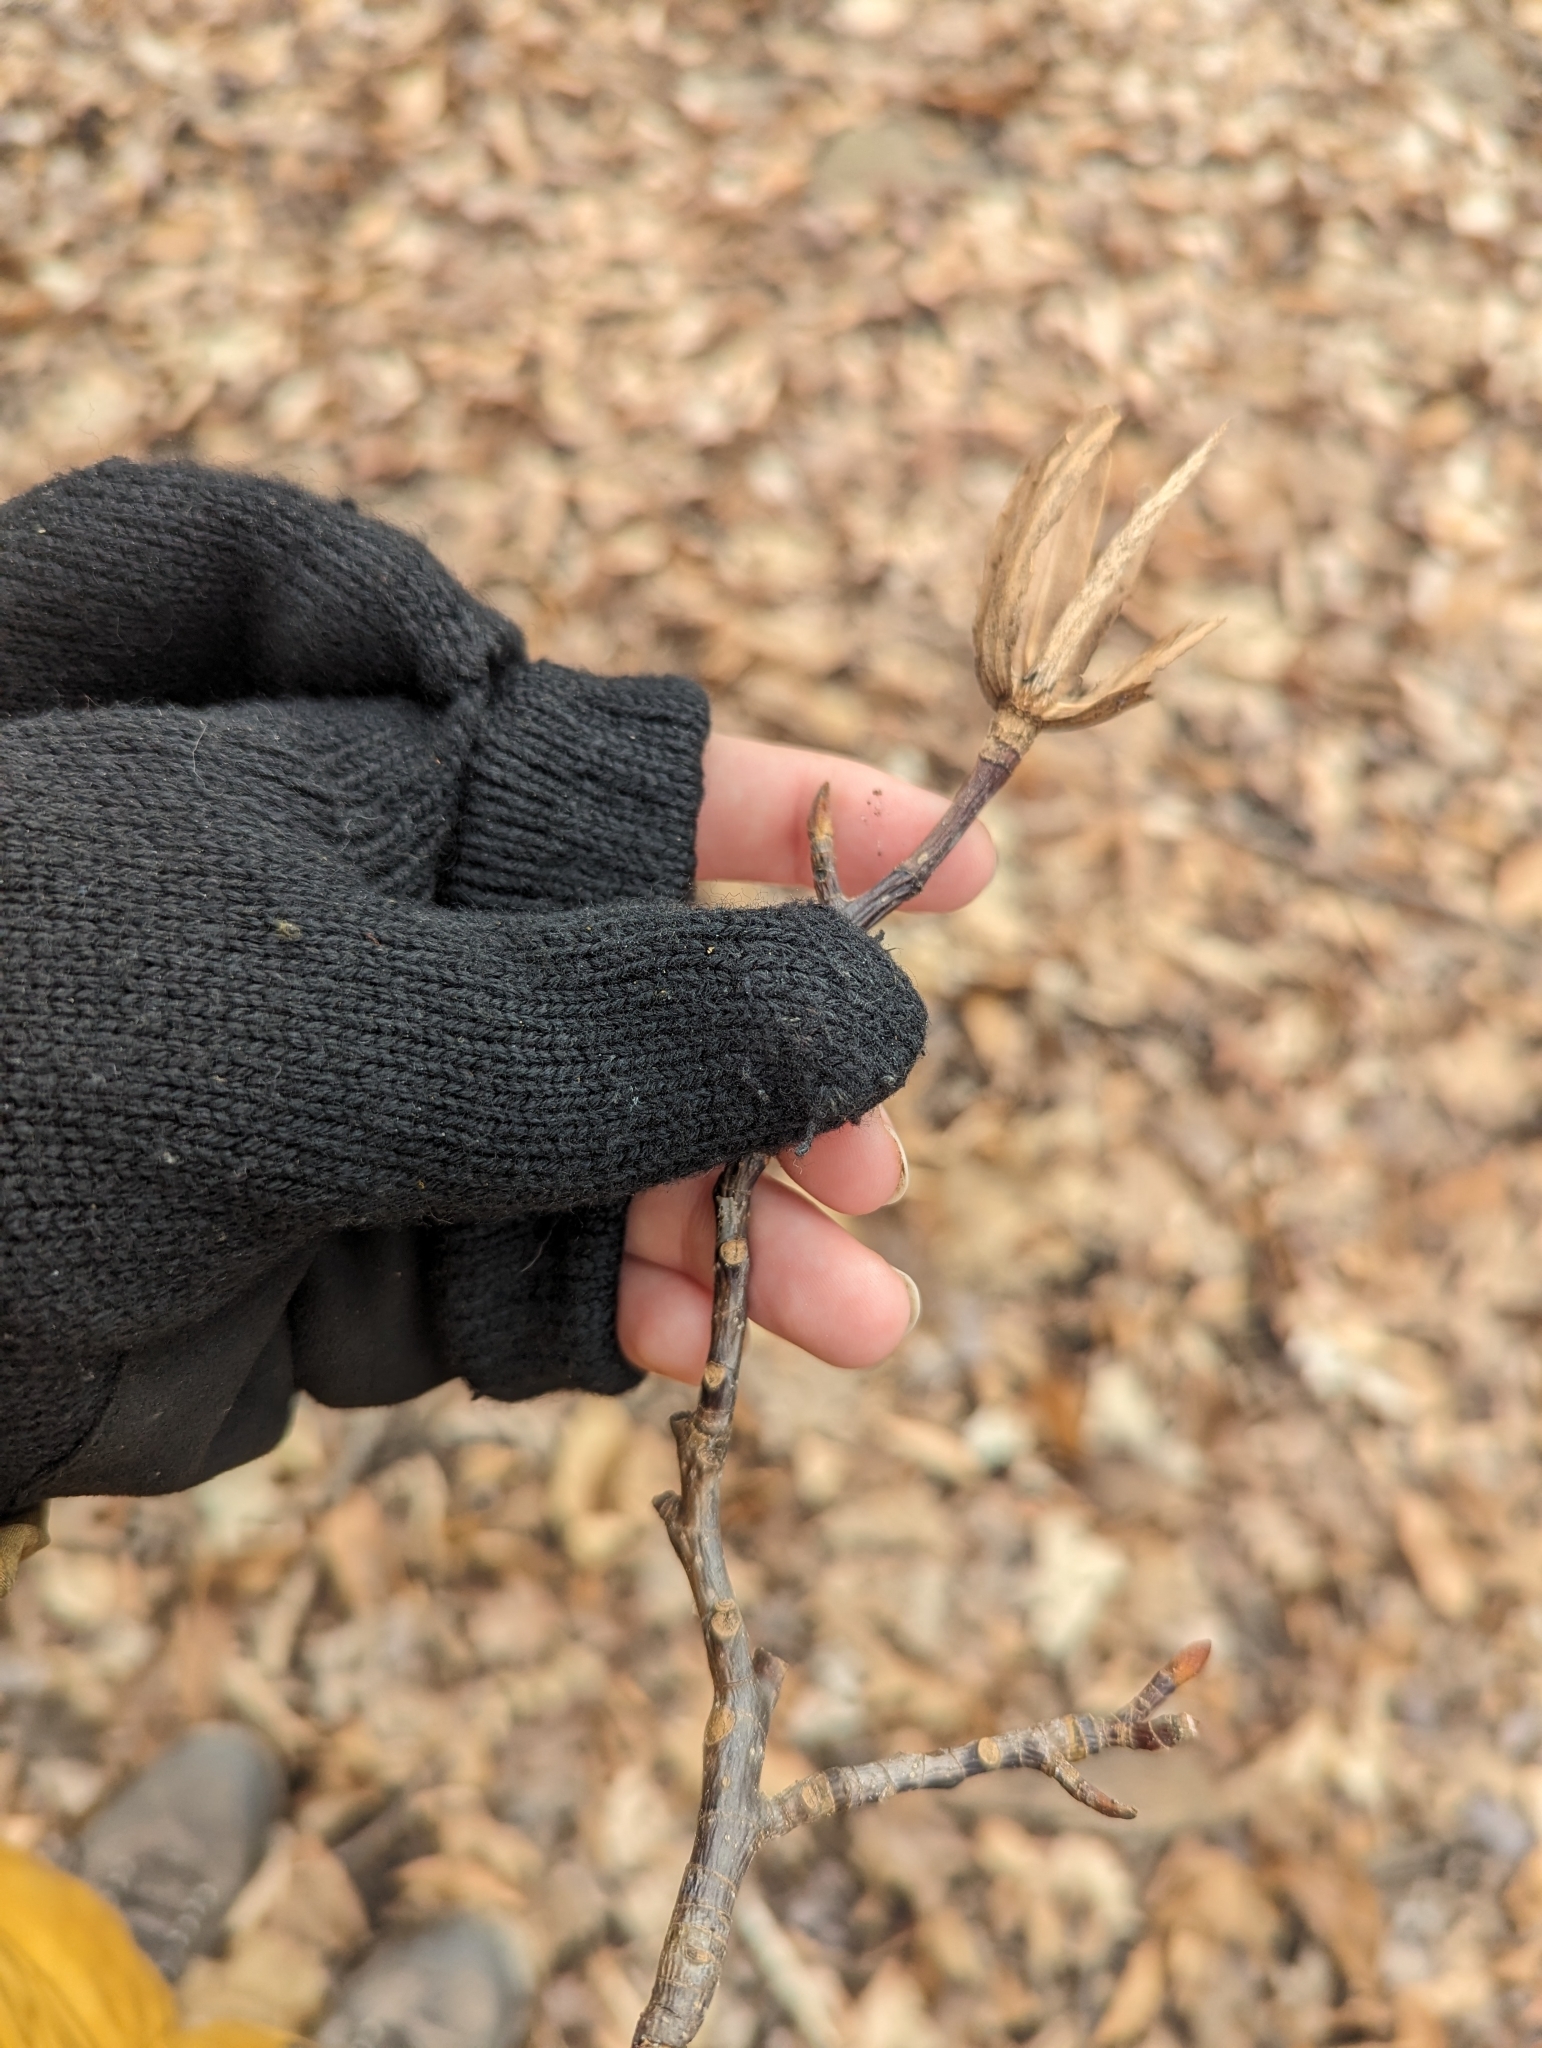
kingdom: Plantae
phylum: Tracheophyta
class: Magnoliopsida
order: Magnoliales
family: Magnoliaceae
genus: Liriodendron
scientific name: Liriodendron tulipifera
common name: Tulip tree
